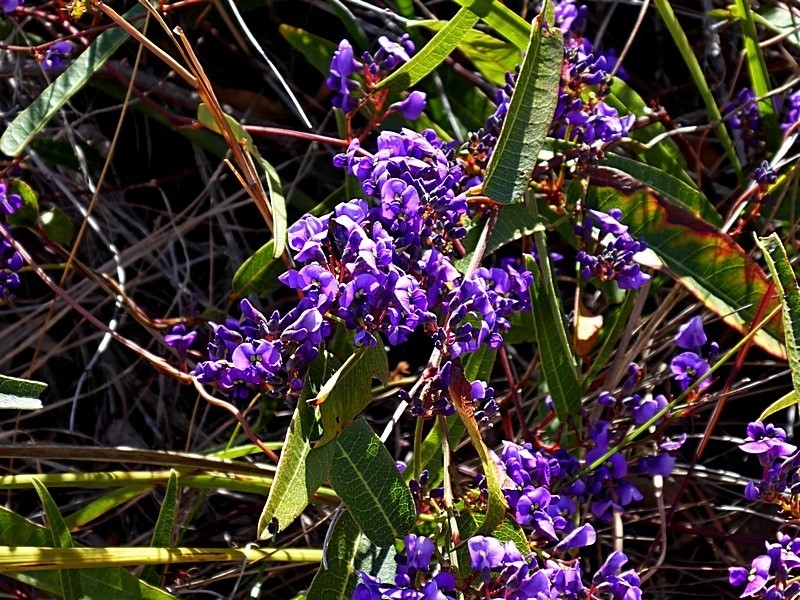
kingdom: Plantae
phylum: Tracheophyta
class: Magnoliopsida
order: Fabales
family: Fabaceae
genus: Hardenbergia
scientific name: Hardenbergia violacea
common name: Coral-pea
